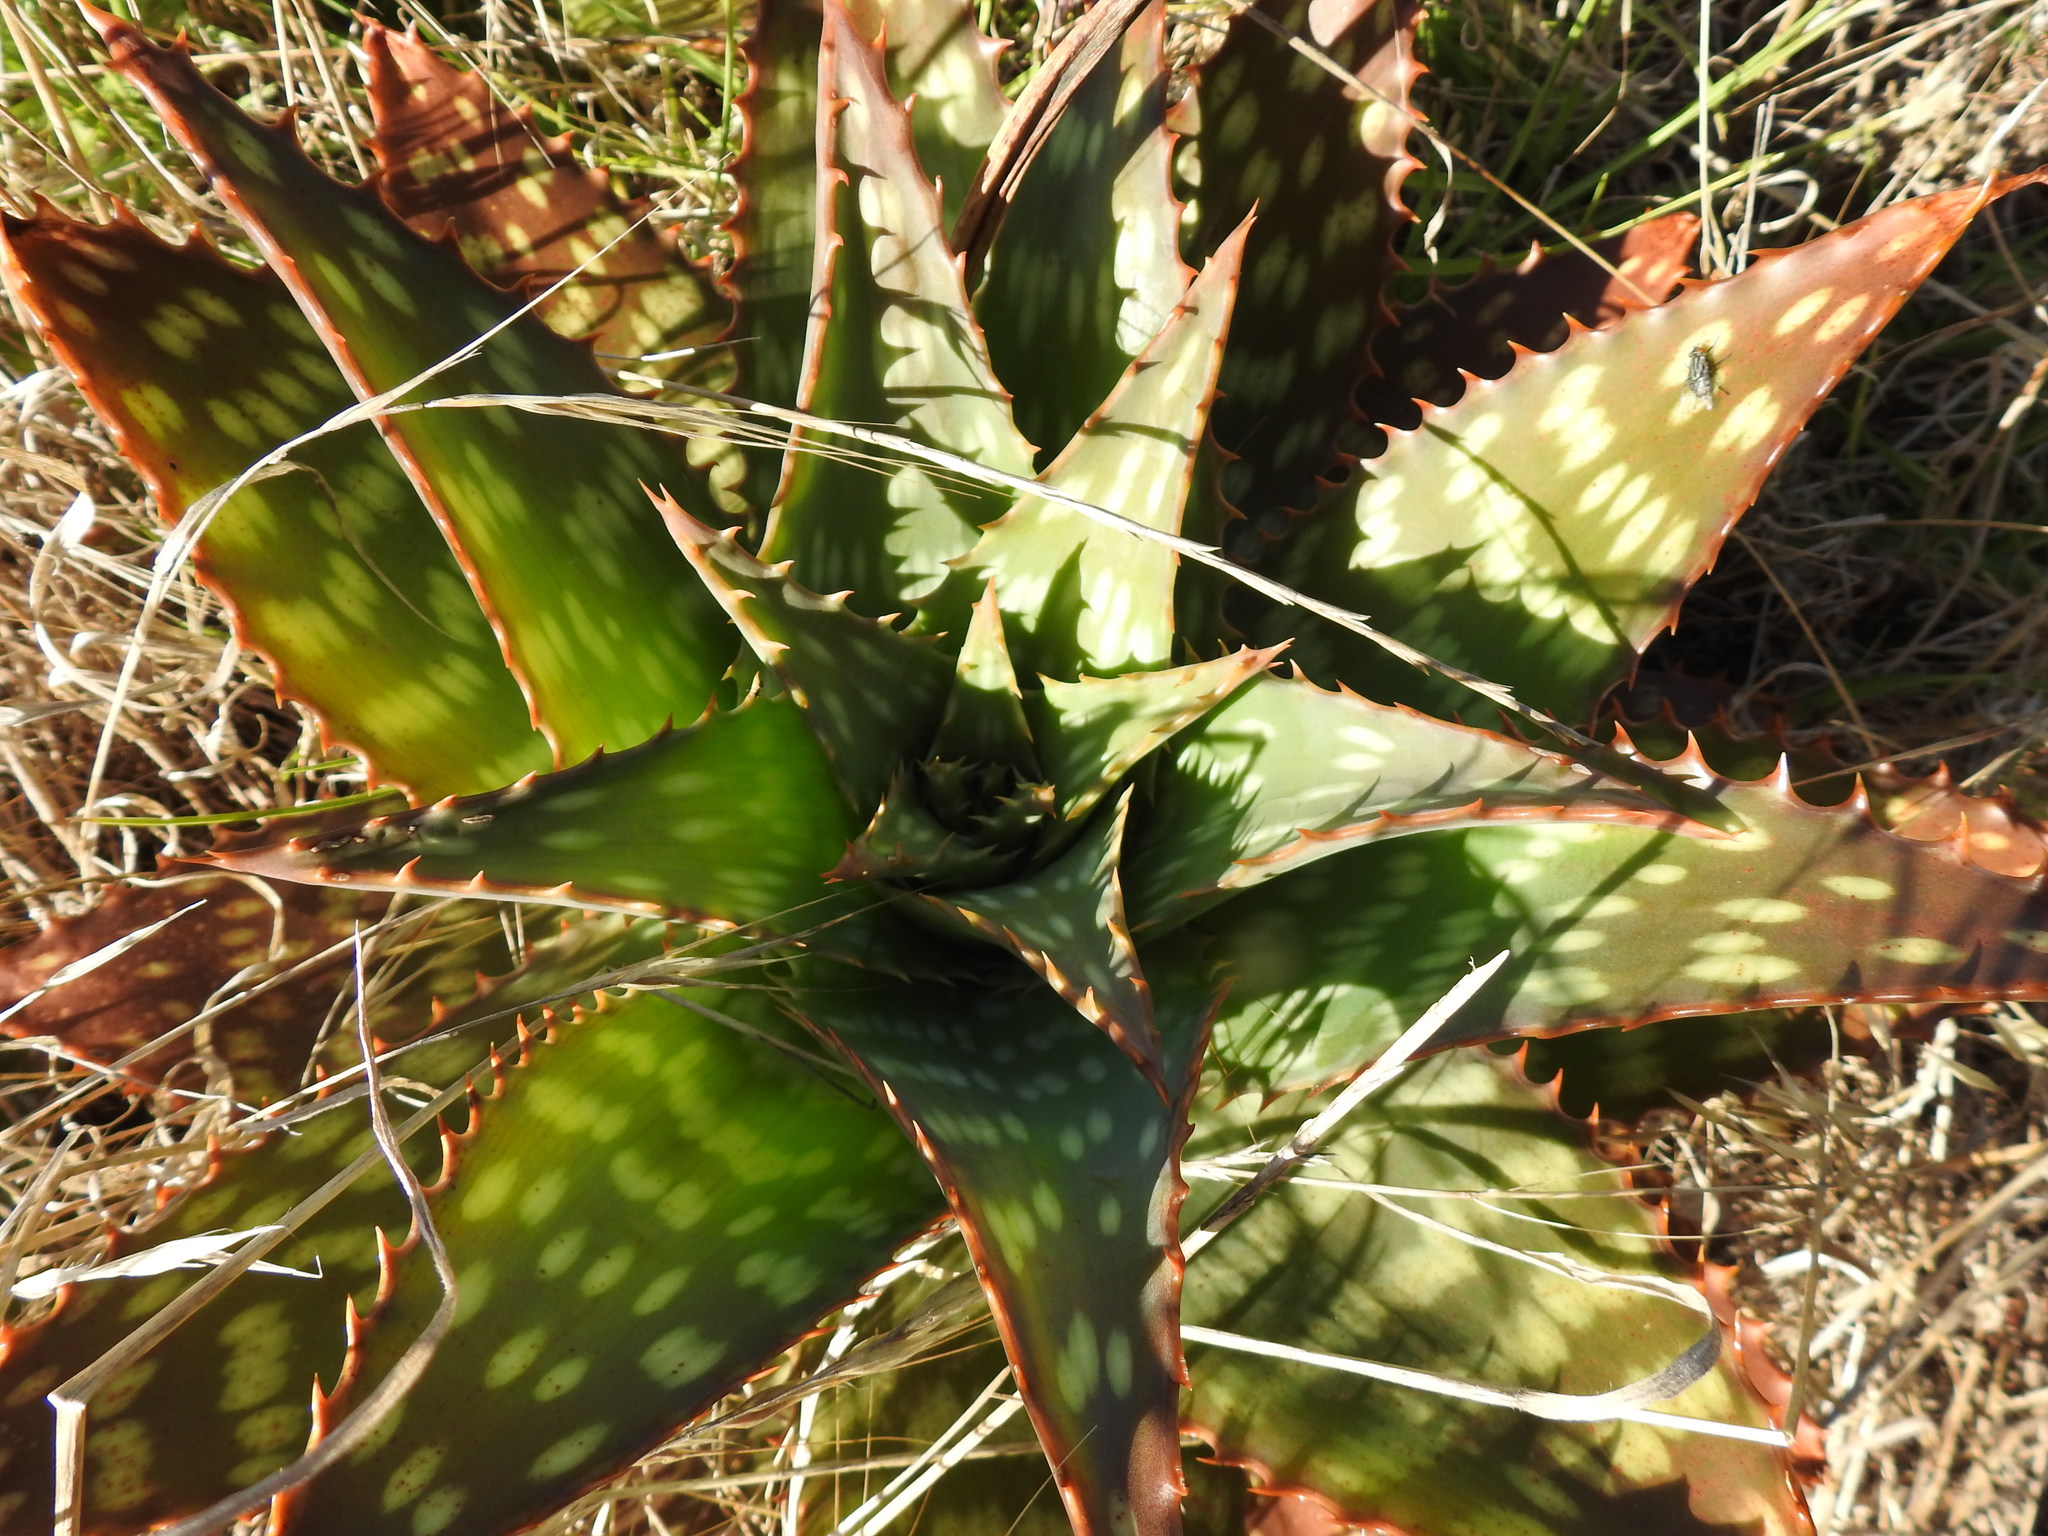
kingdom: Plantae
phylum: Tracheophyta
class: Liliopsida
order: Asparagales
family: Asphodelaceae
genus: Aloe
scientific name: Aloe maculata
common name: Broadleaf aloe
